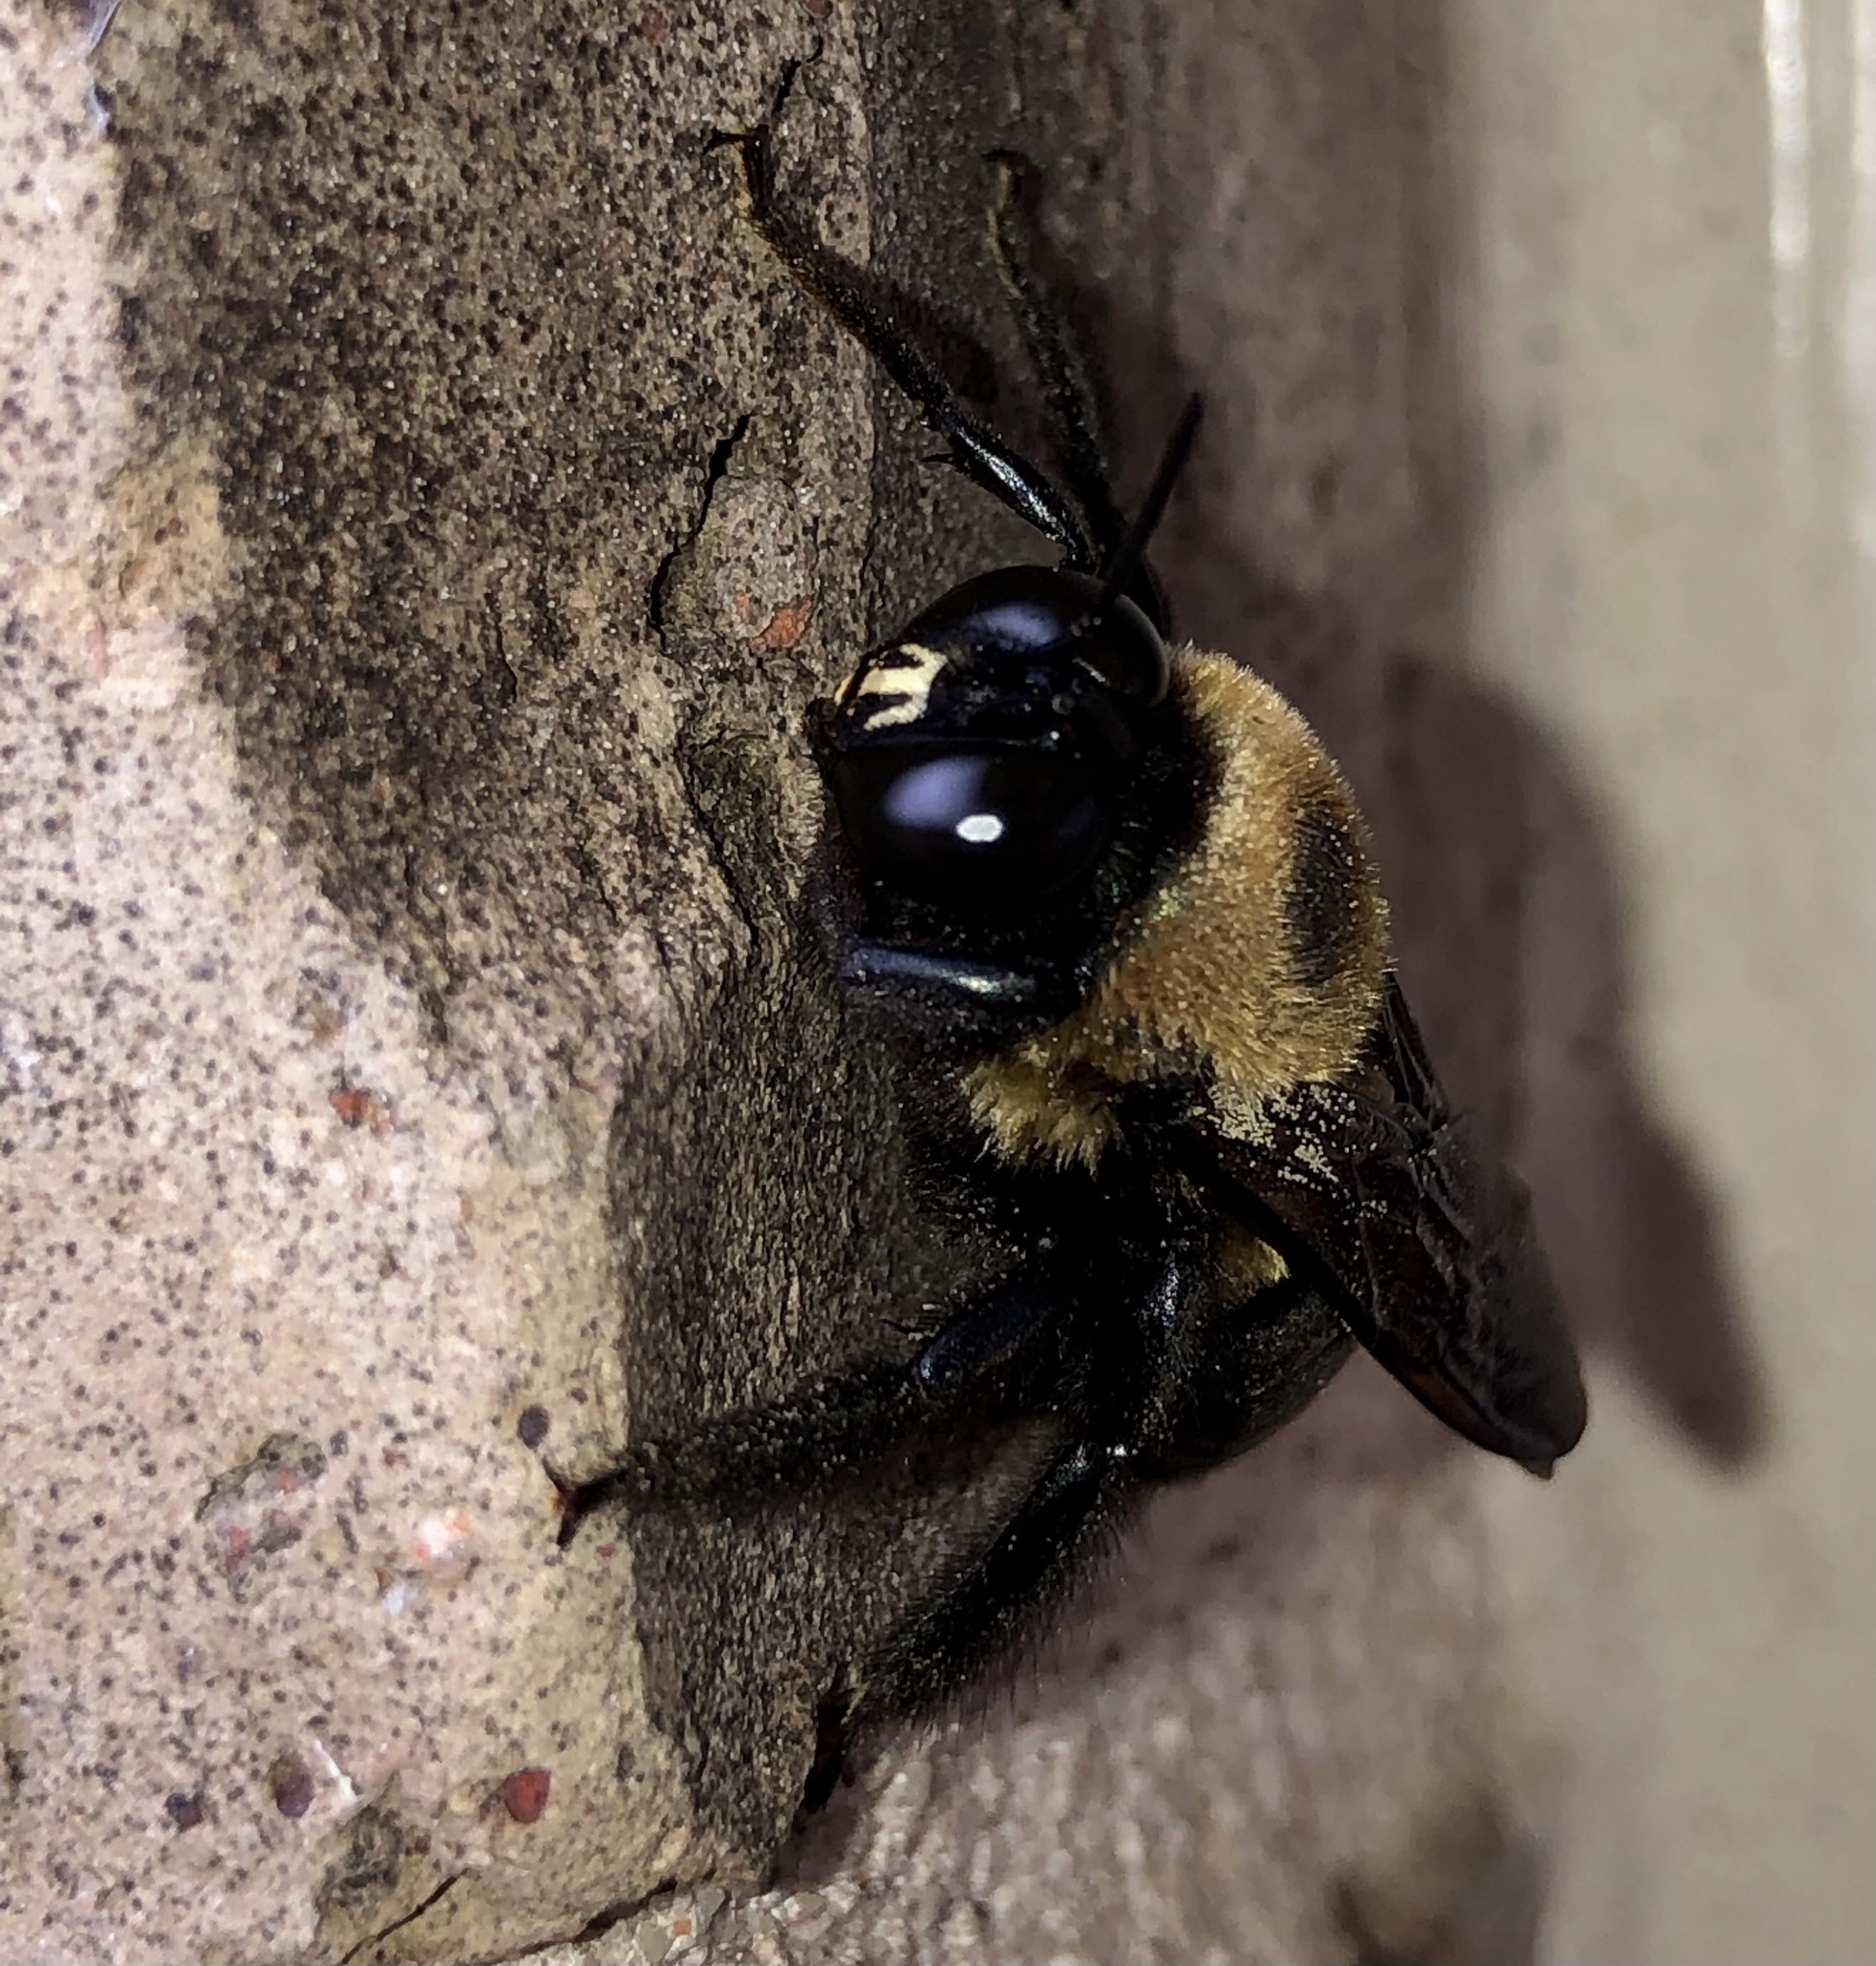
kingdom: Animalia
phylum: Arthropoda
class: Insecta
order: Hymenoptera
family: Apidae
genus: Xylocopa
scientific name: Xylocopa virginica
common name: Carpenter bee
